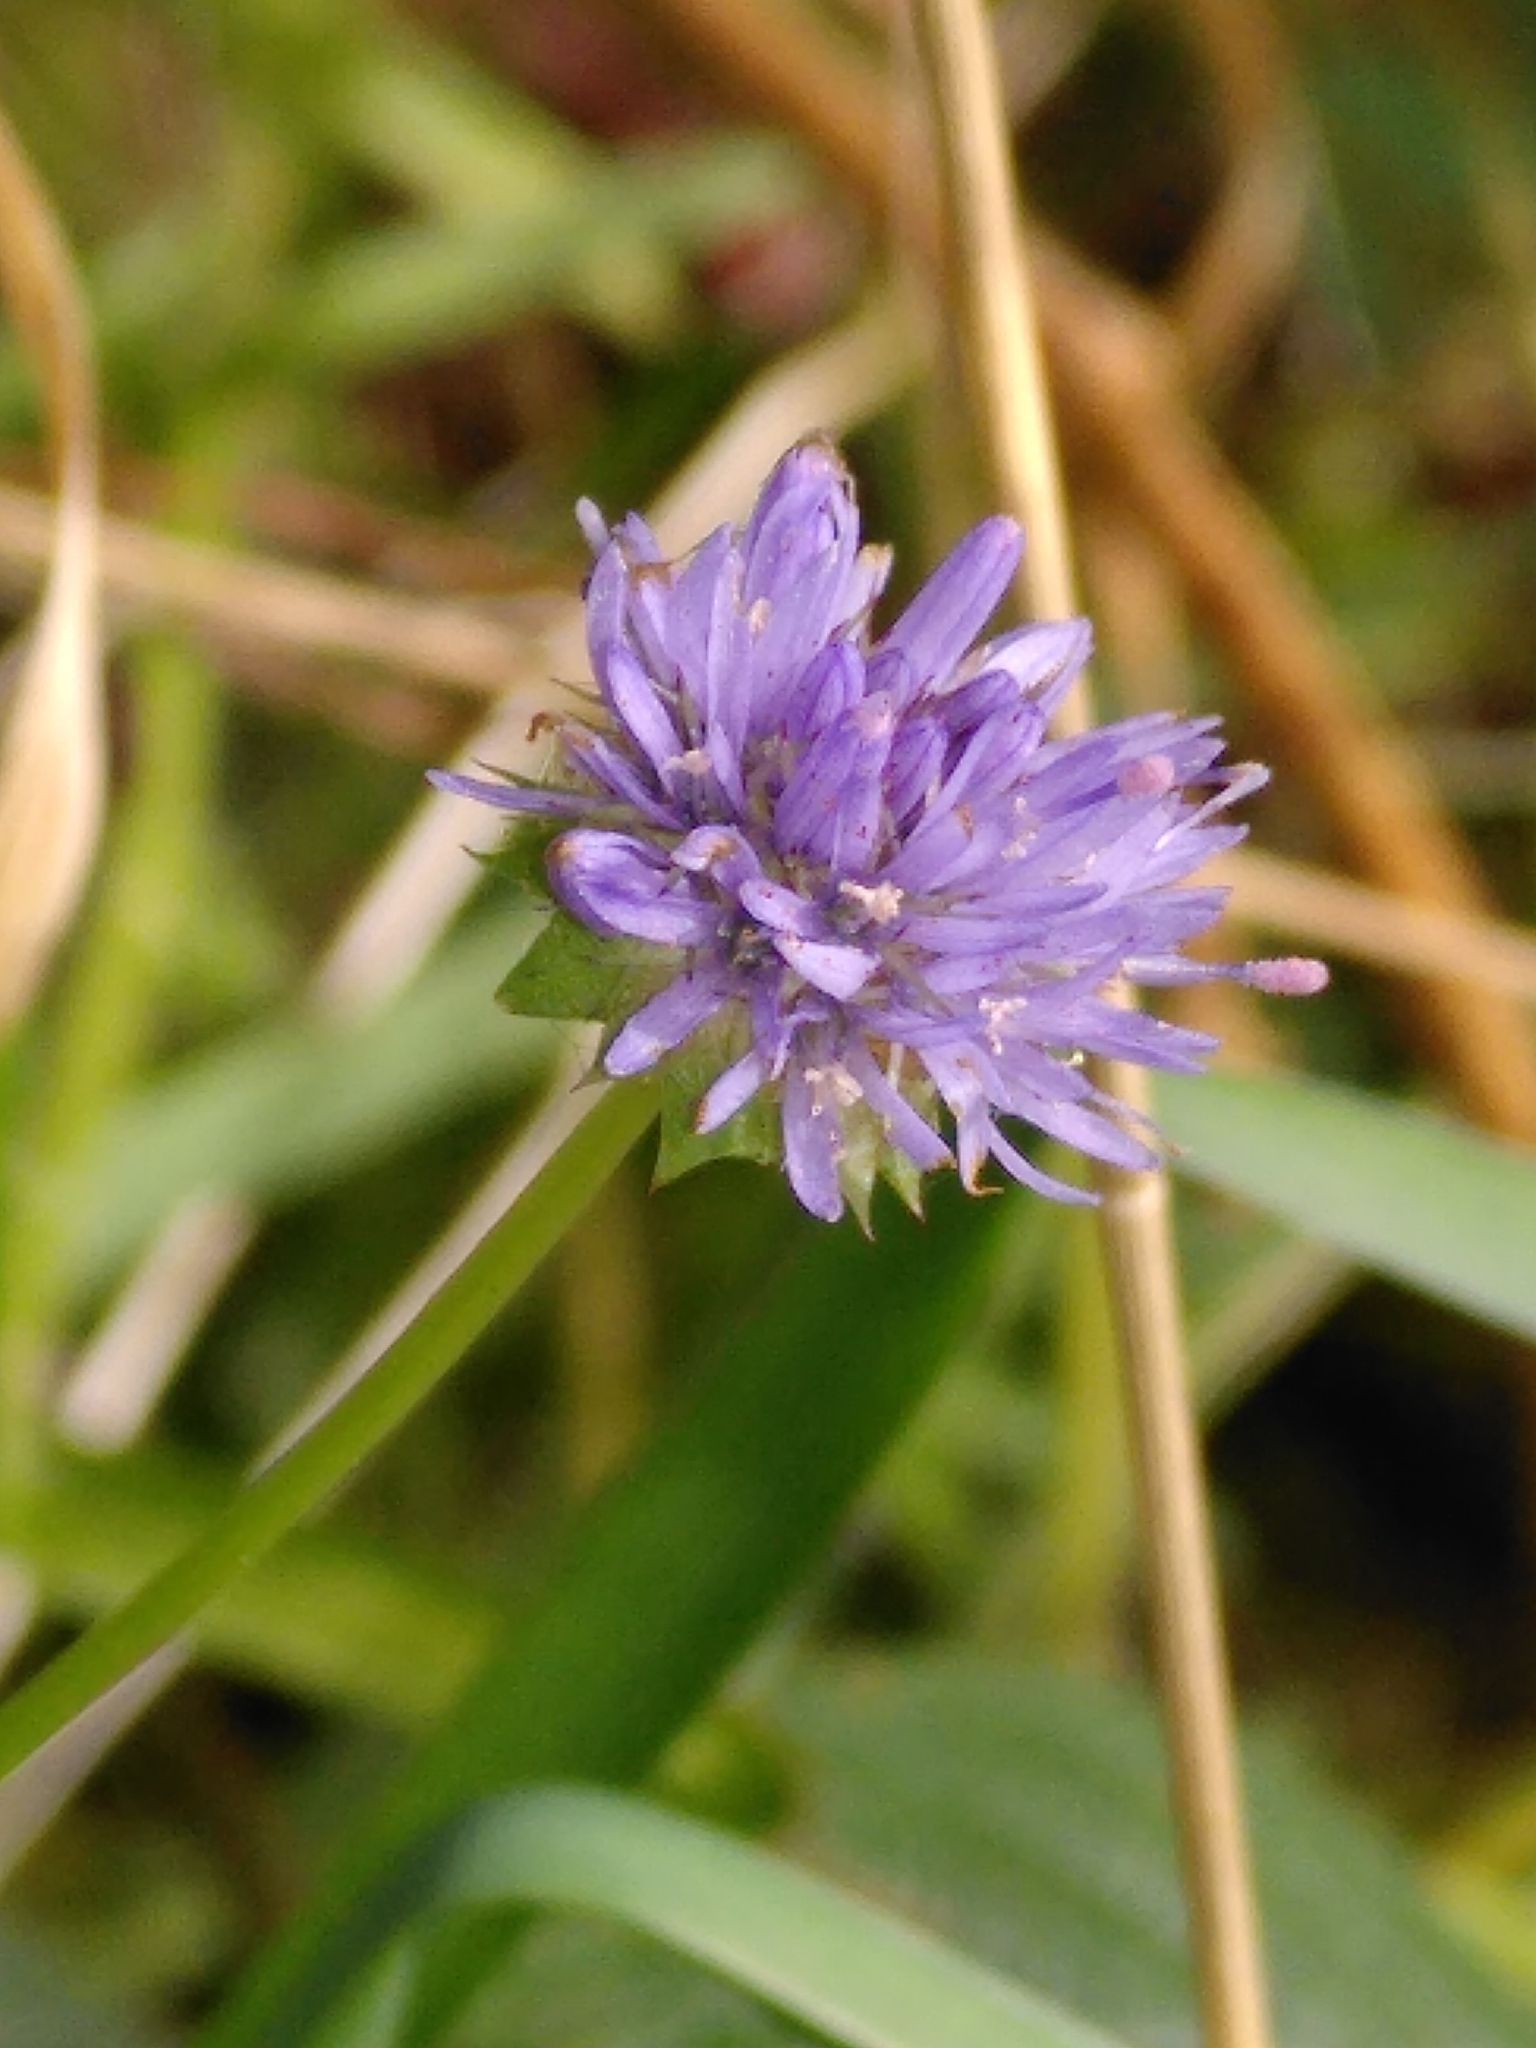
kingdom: Plantae
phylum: Tracheophyta
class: Magnoliopsida
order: Asterales
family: Campanulaceae
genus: Jasione
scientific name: Jasione montana
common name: Sheep's-bit
